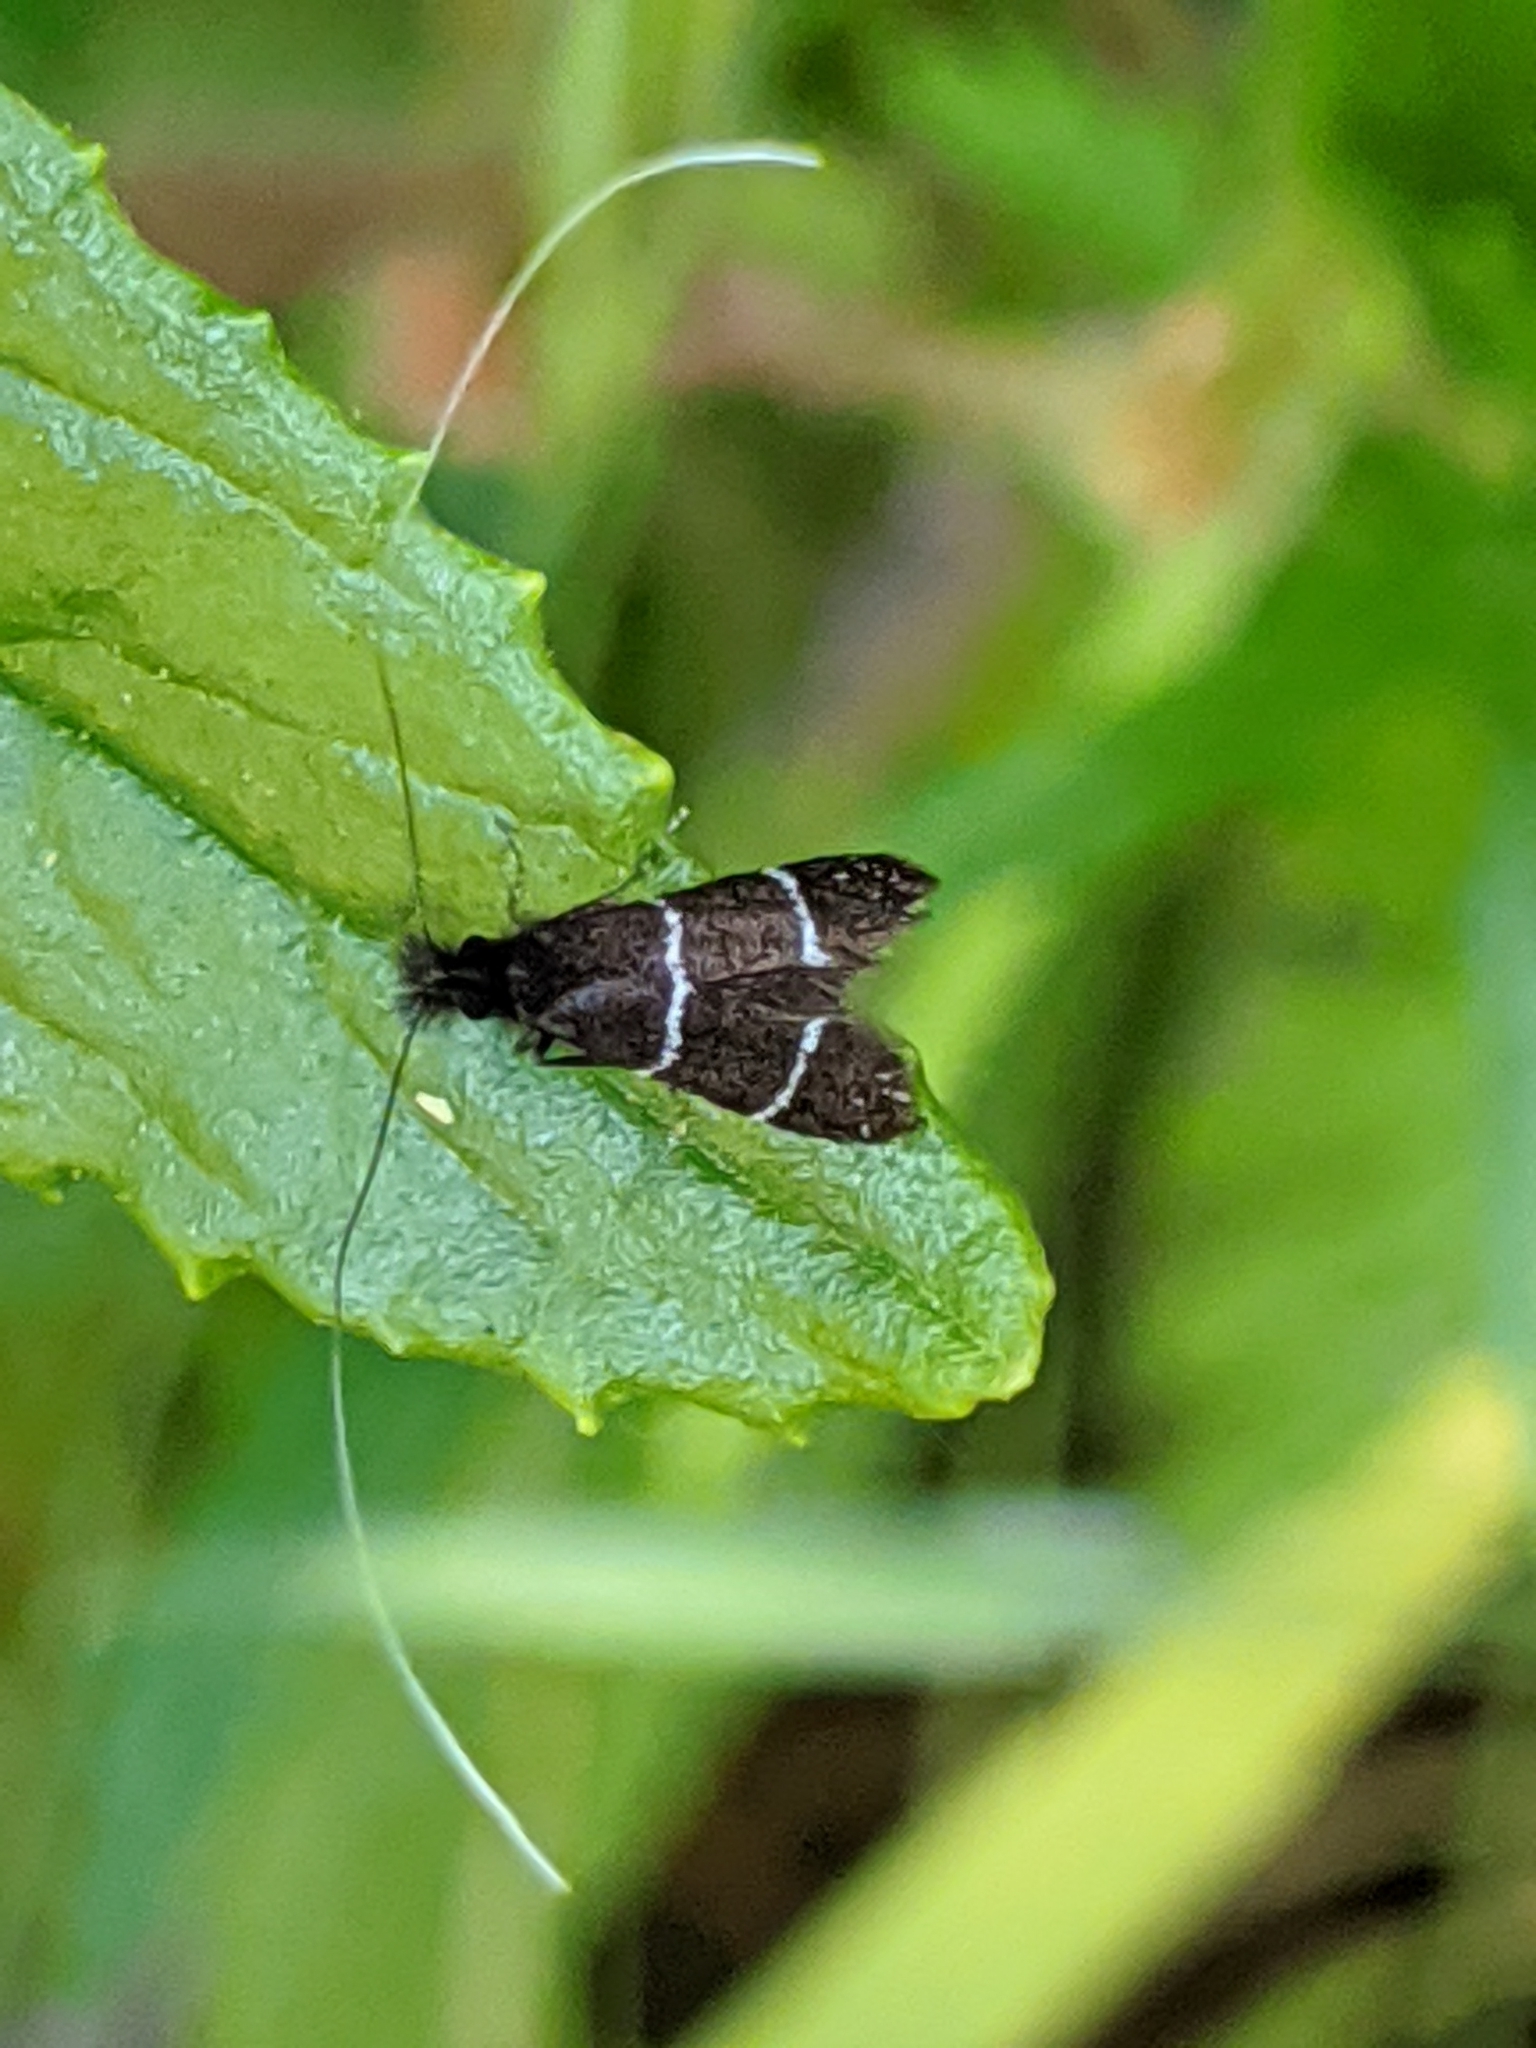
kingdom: Animalia
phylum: Arthropoda
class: Insecta
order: Lepidoptera
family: Adelidae
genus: Adela
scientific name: Adela septentrionella
